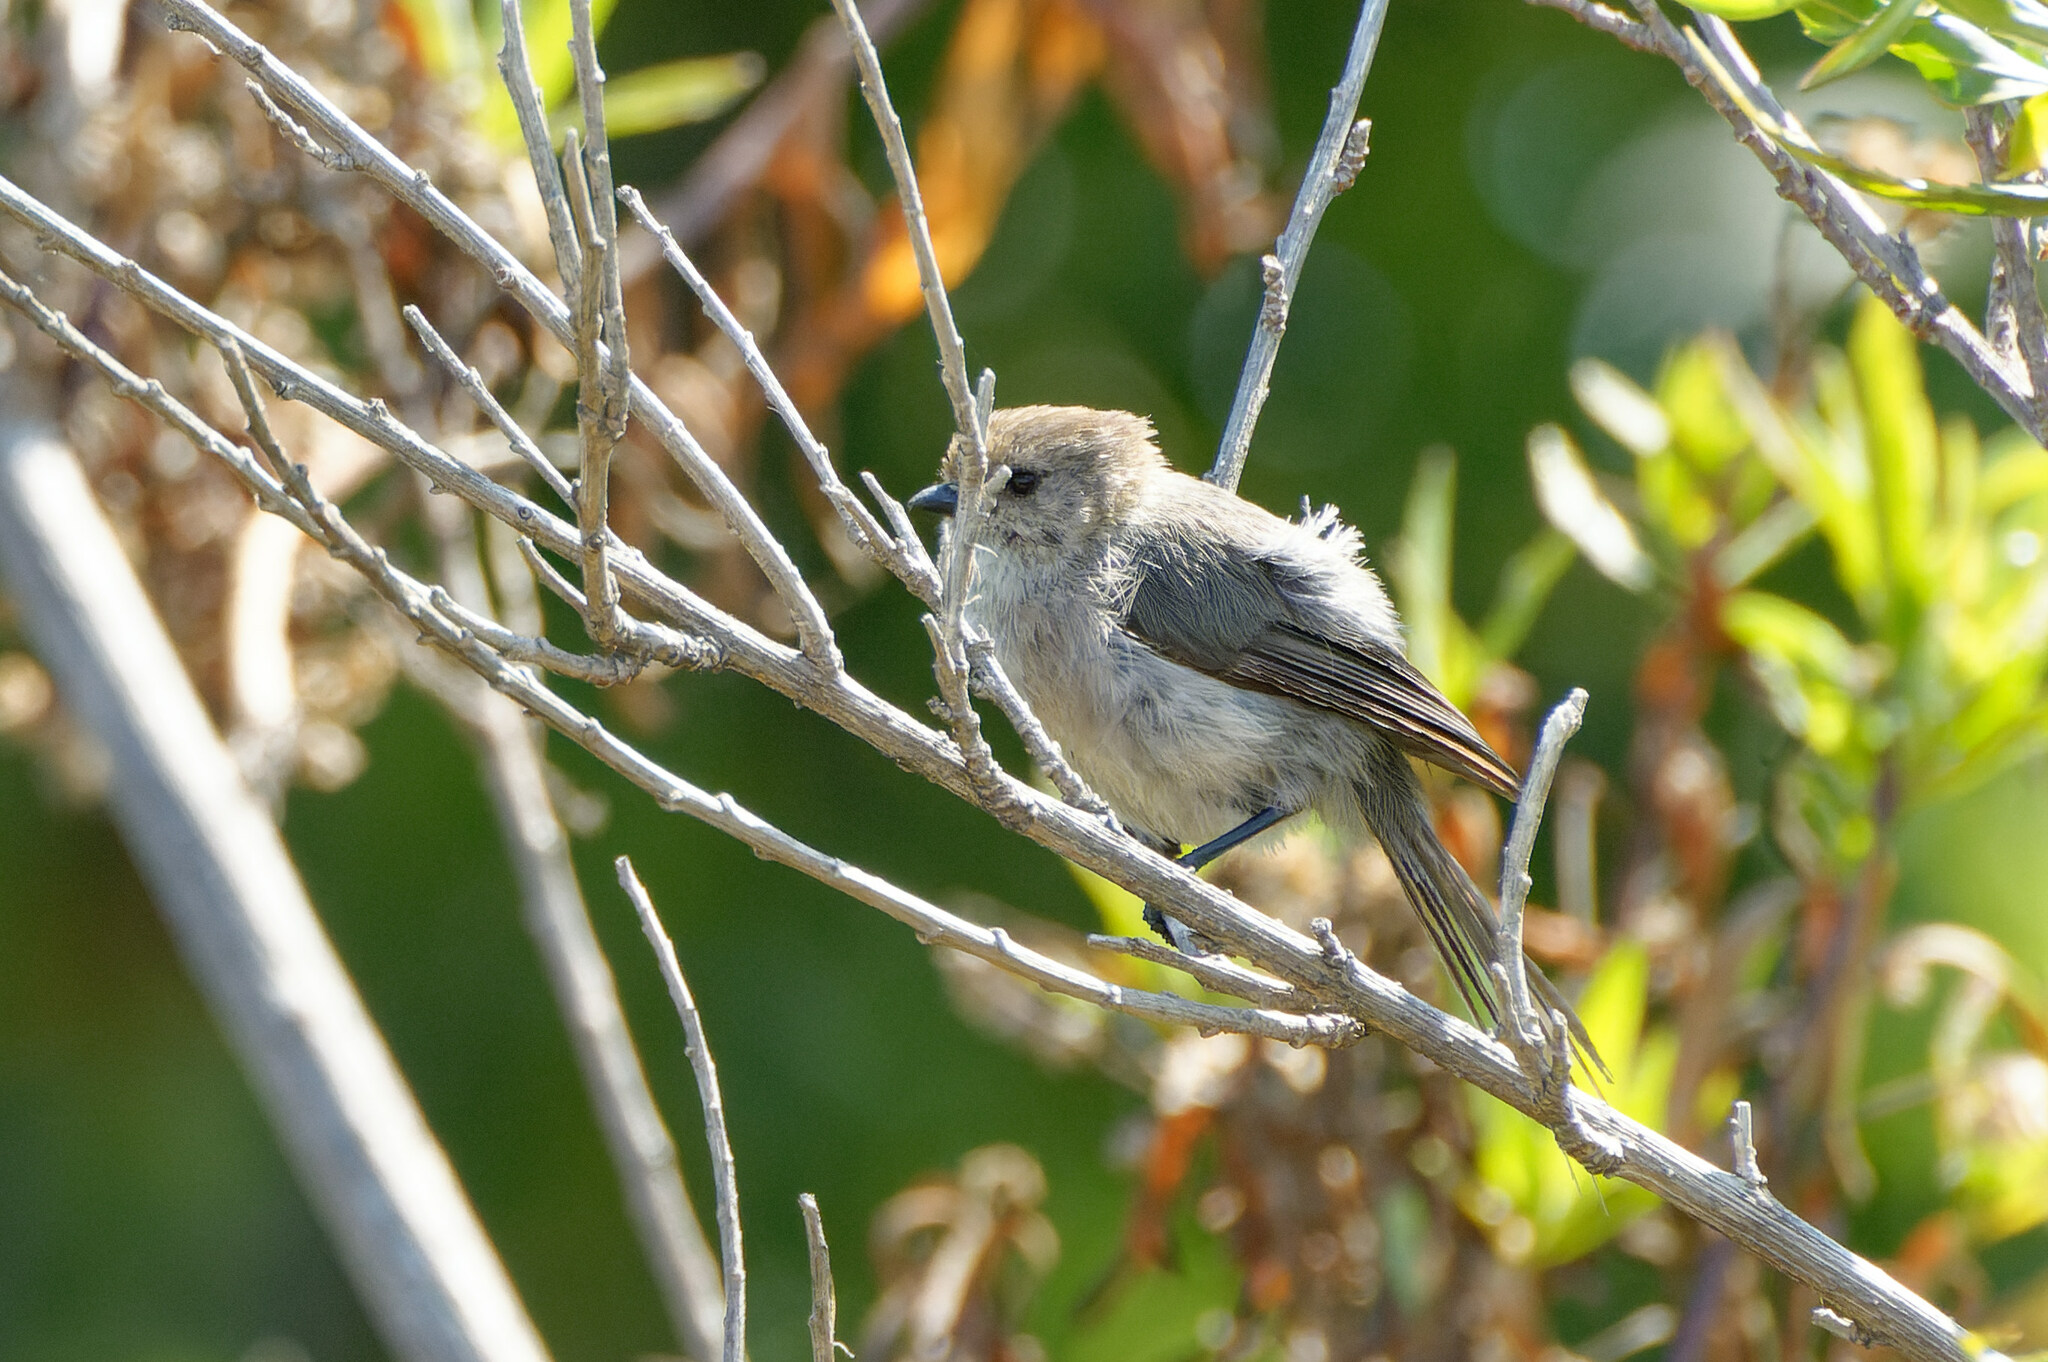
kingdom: Animalia
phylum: Chordata
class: Aves
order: Passeriformes
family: Aegithalidae
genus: Psaltriparus
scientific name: Psaltriparus minimus
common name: American bushtit
